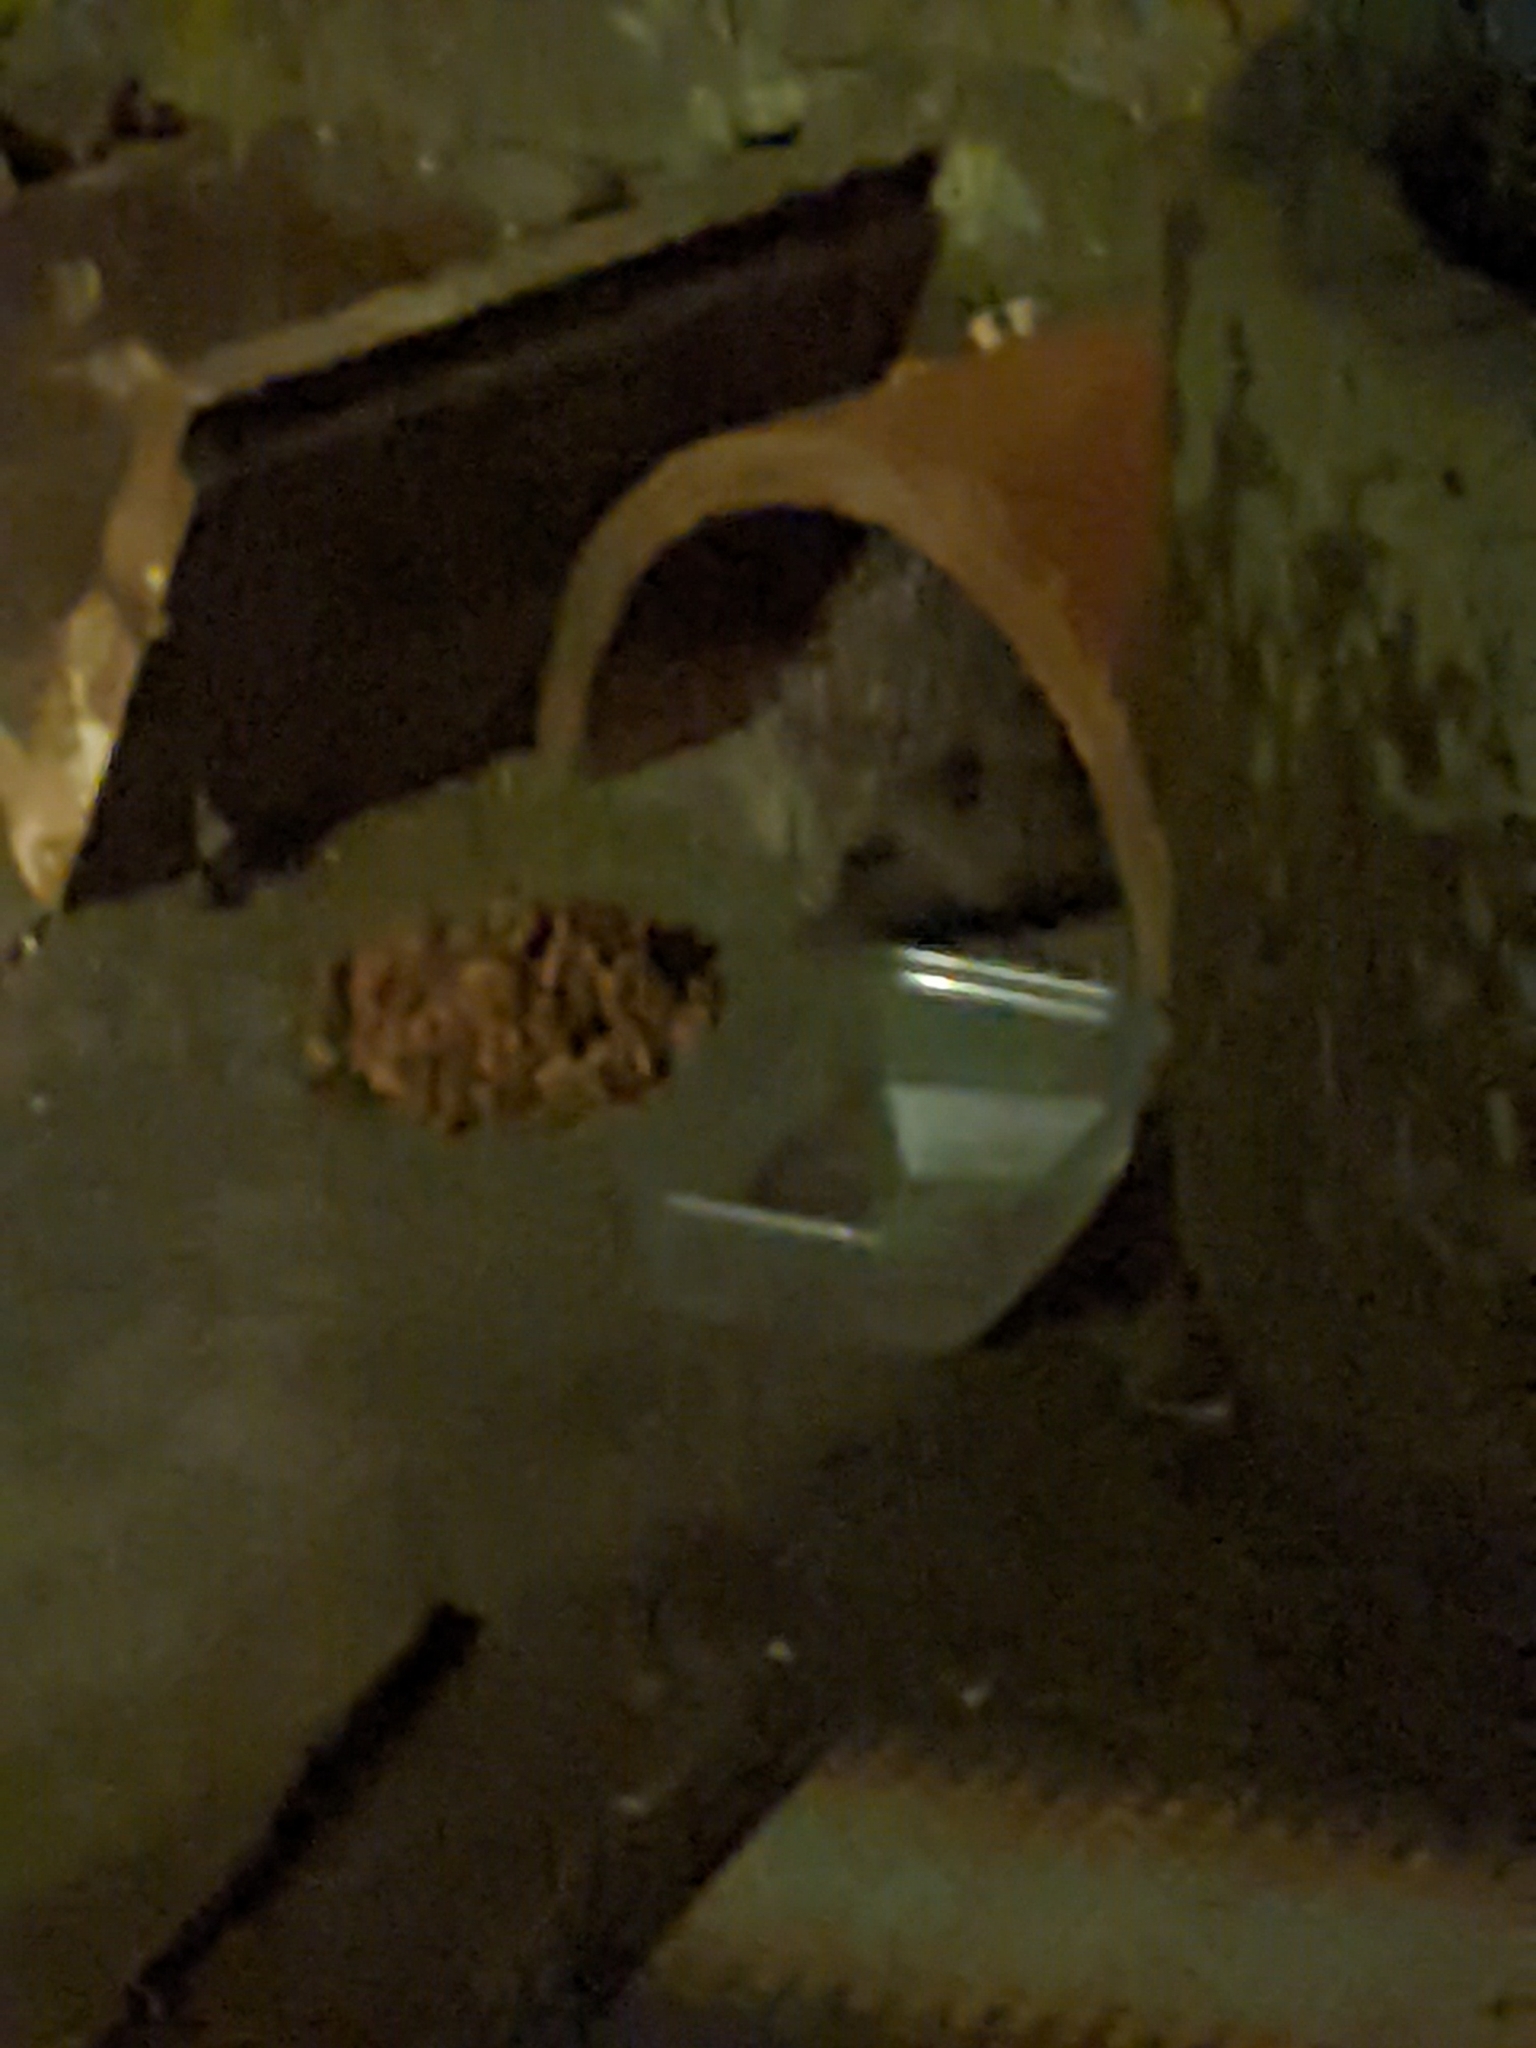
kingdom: Animalia
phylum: Chordata
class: Mammalia
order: Erinaceomorpha
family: Erinaceidae
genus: Erinaceus
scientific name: Erinaceus europaeus
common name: West european hedgehog
